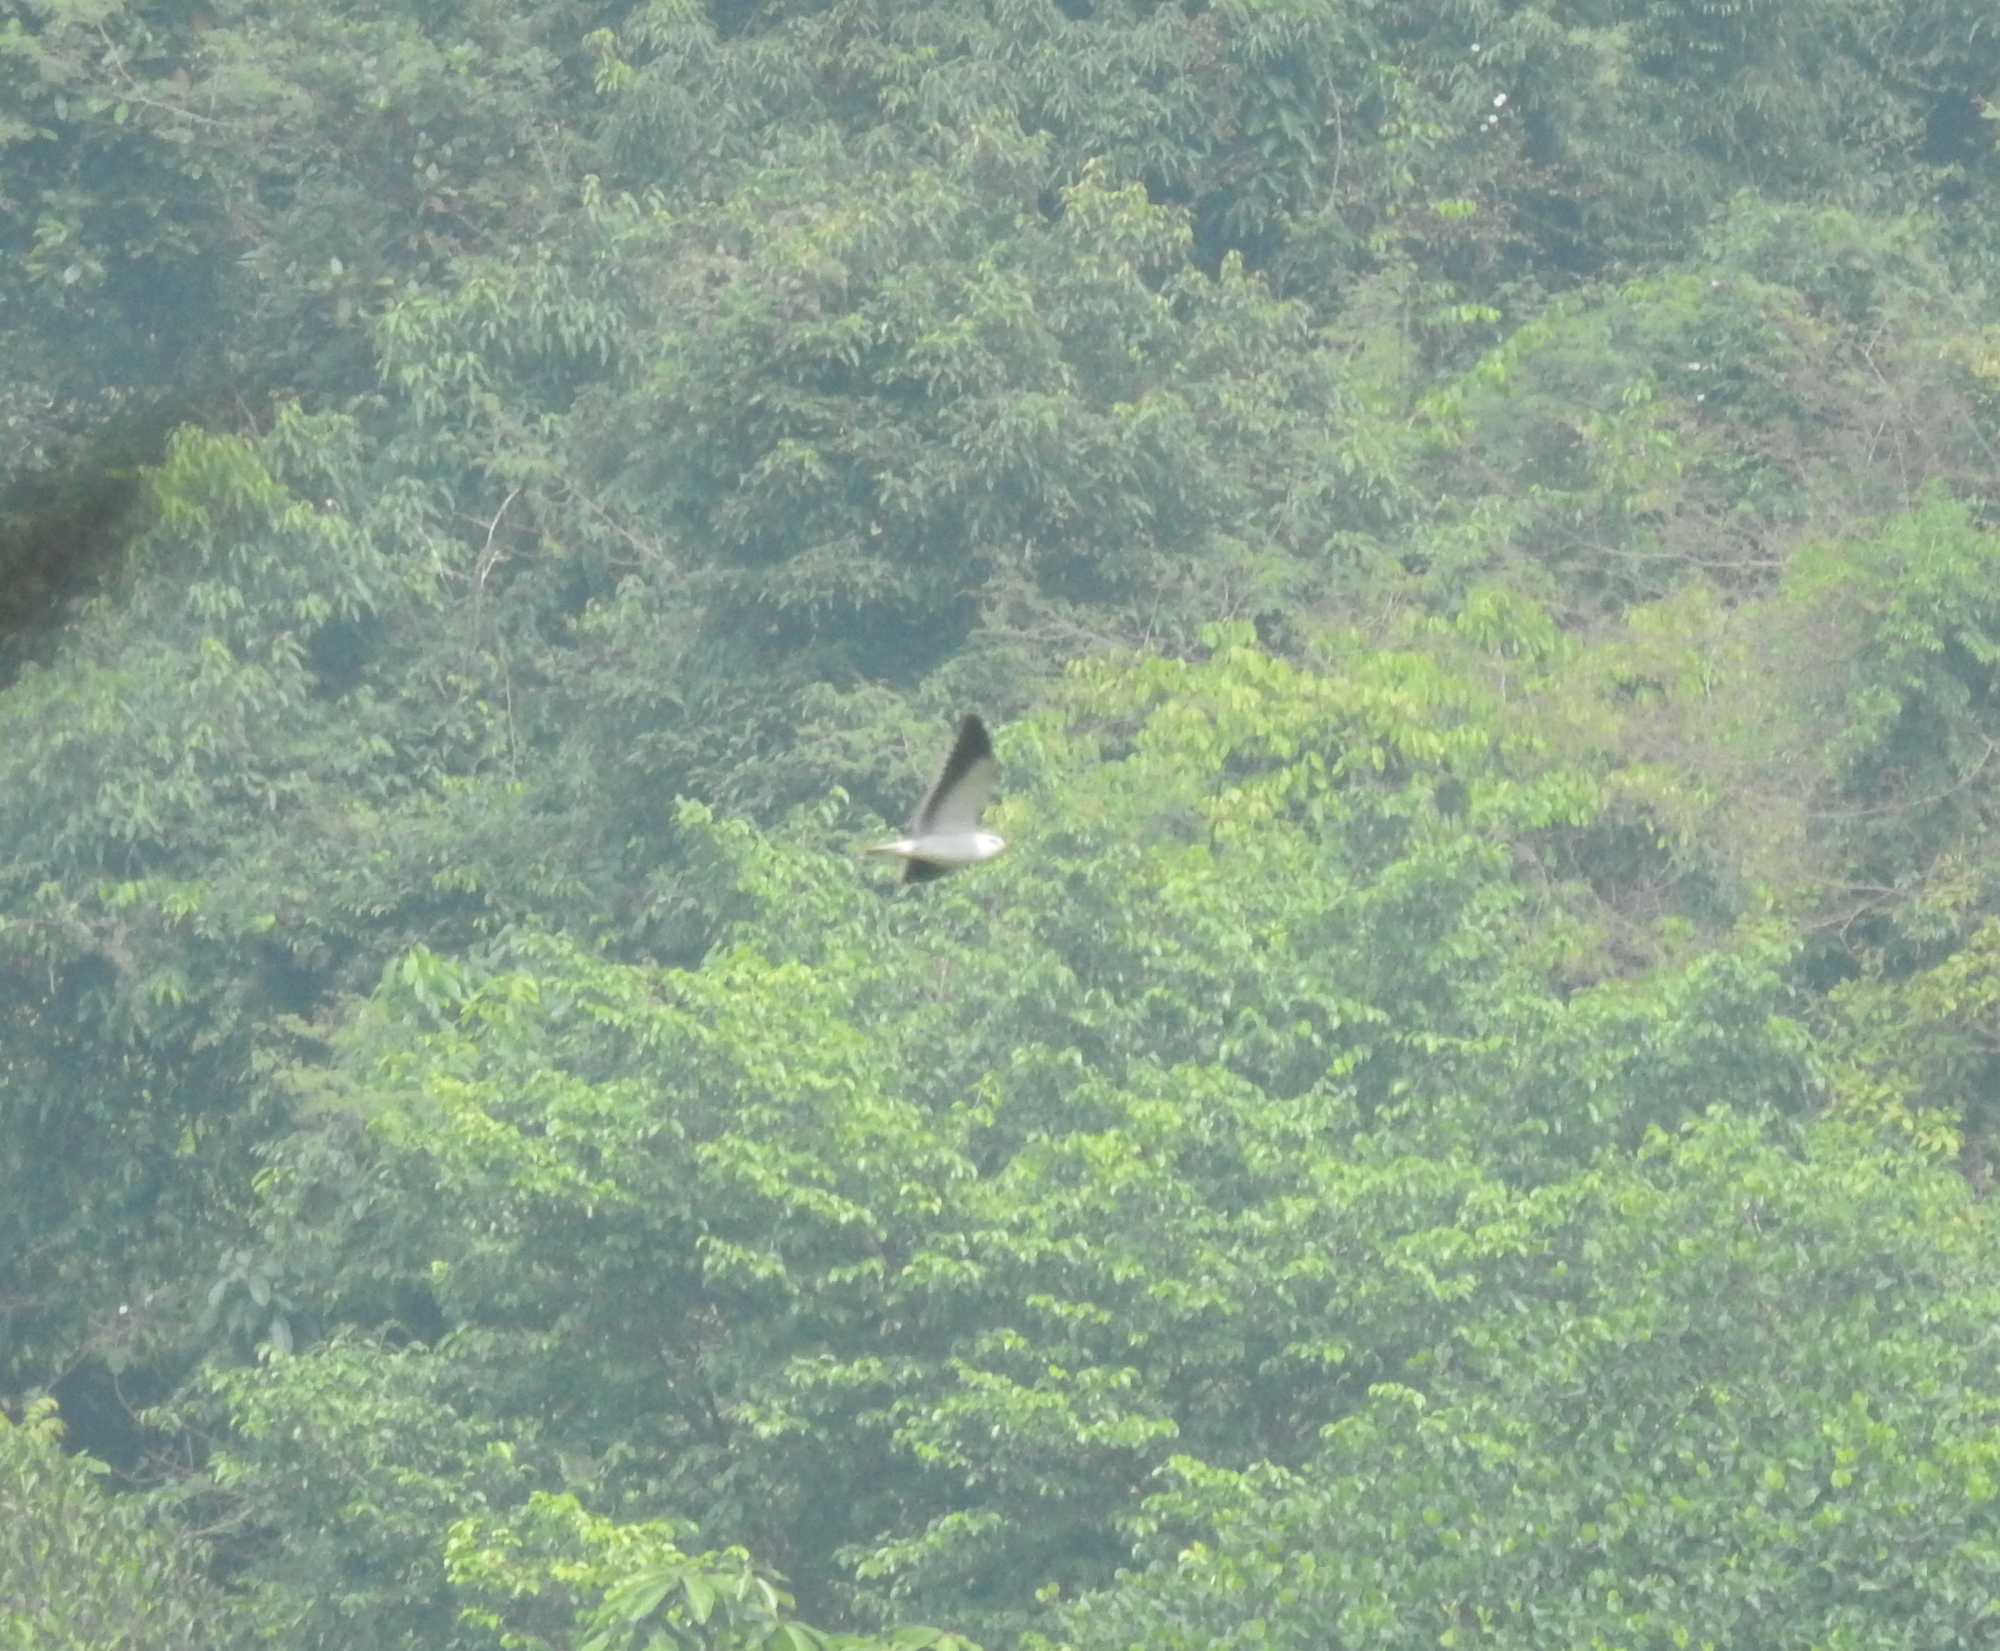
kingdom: Animalia
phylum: Chordata
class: Aves
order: Accipitriformes
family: Accipitridae
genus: Elanus
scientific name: Elanus caeruleus
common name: Black-winged kite
